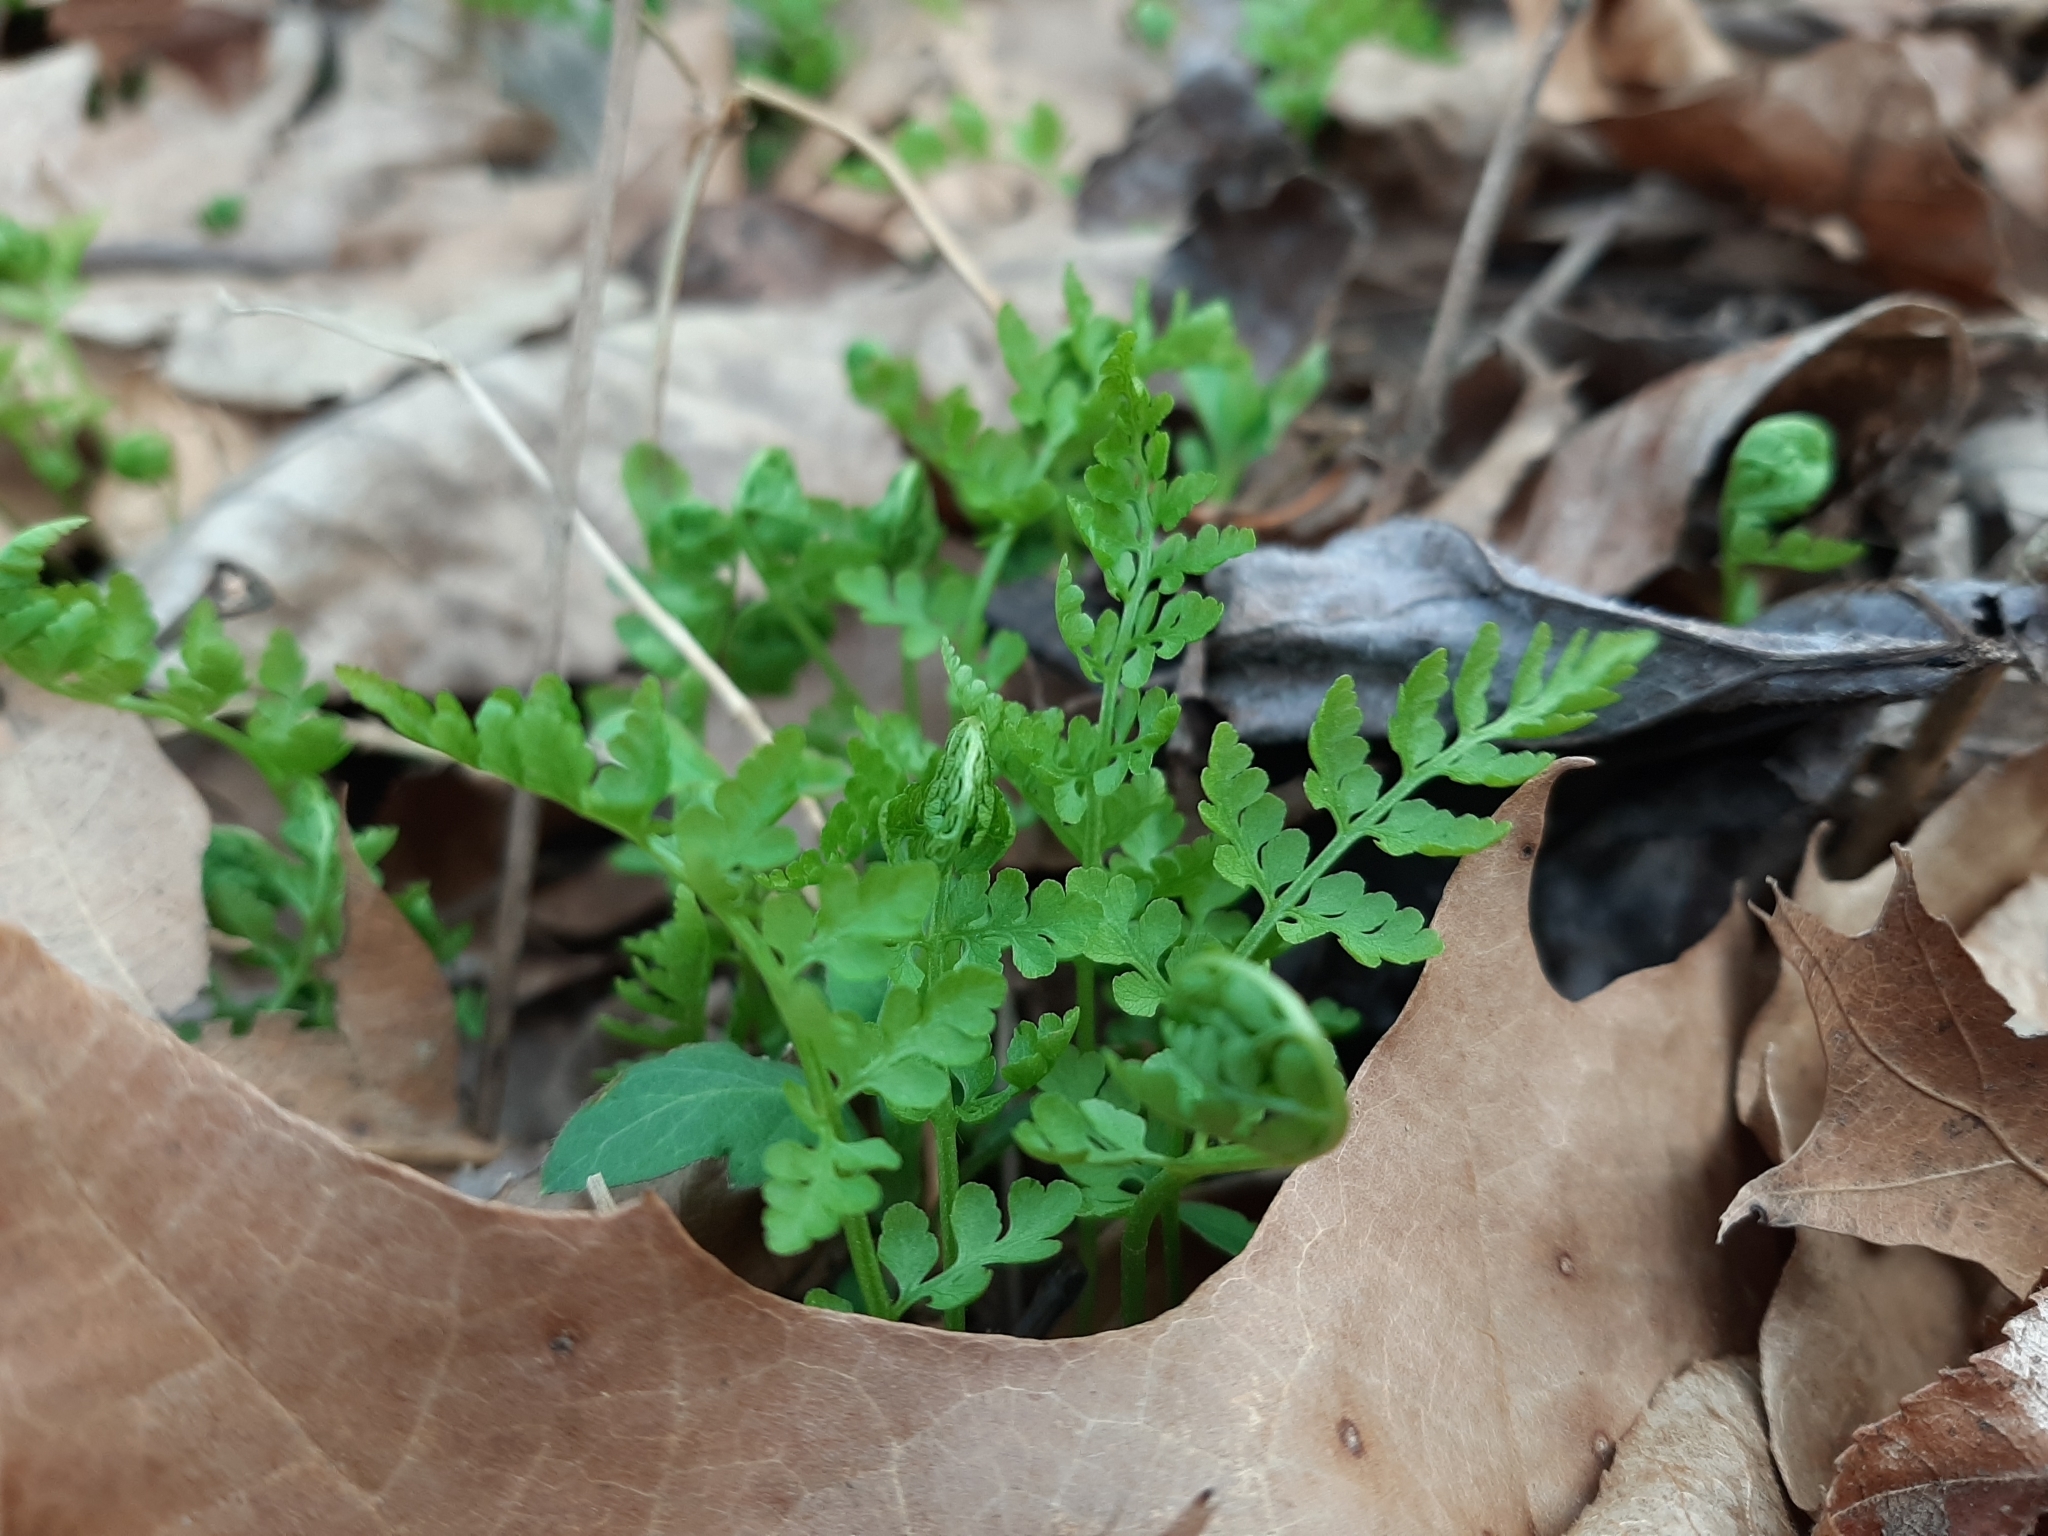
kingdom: Plantae
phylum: Tracheophyta
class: Polypodiopsida
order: Polypodiales
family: Cystopteridaceae
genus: Cystopteris
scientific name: Cystopteris protrusa
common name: Lowland brittle fern
